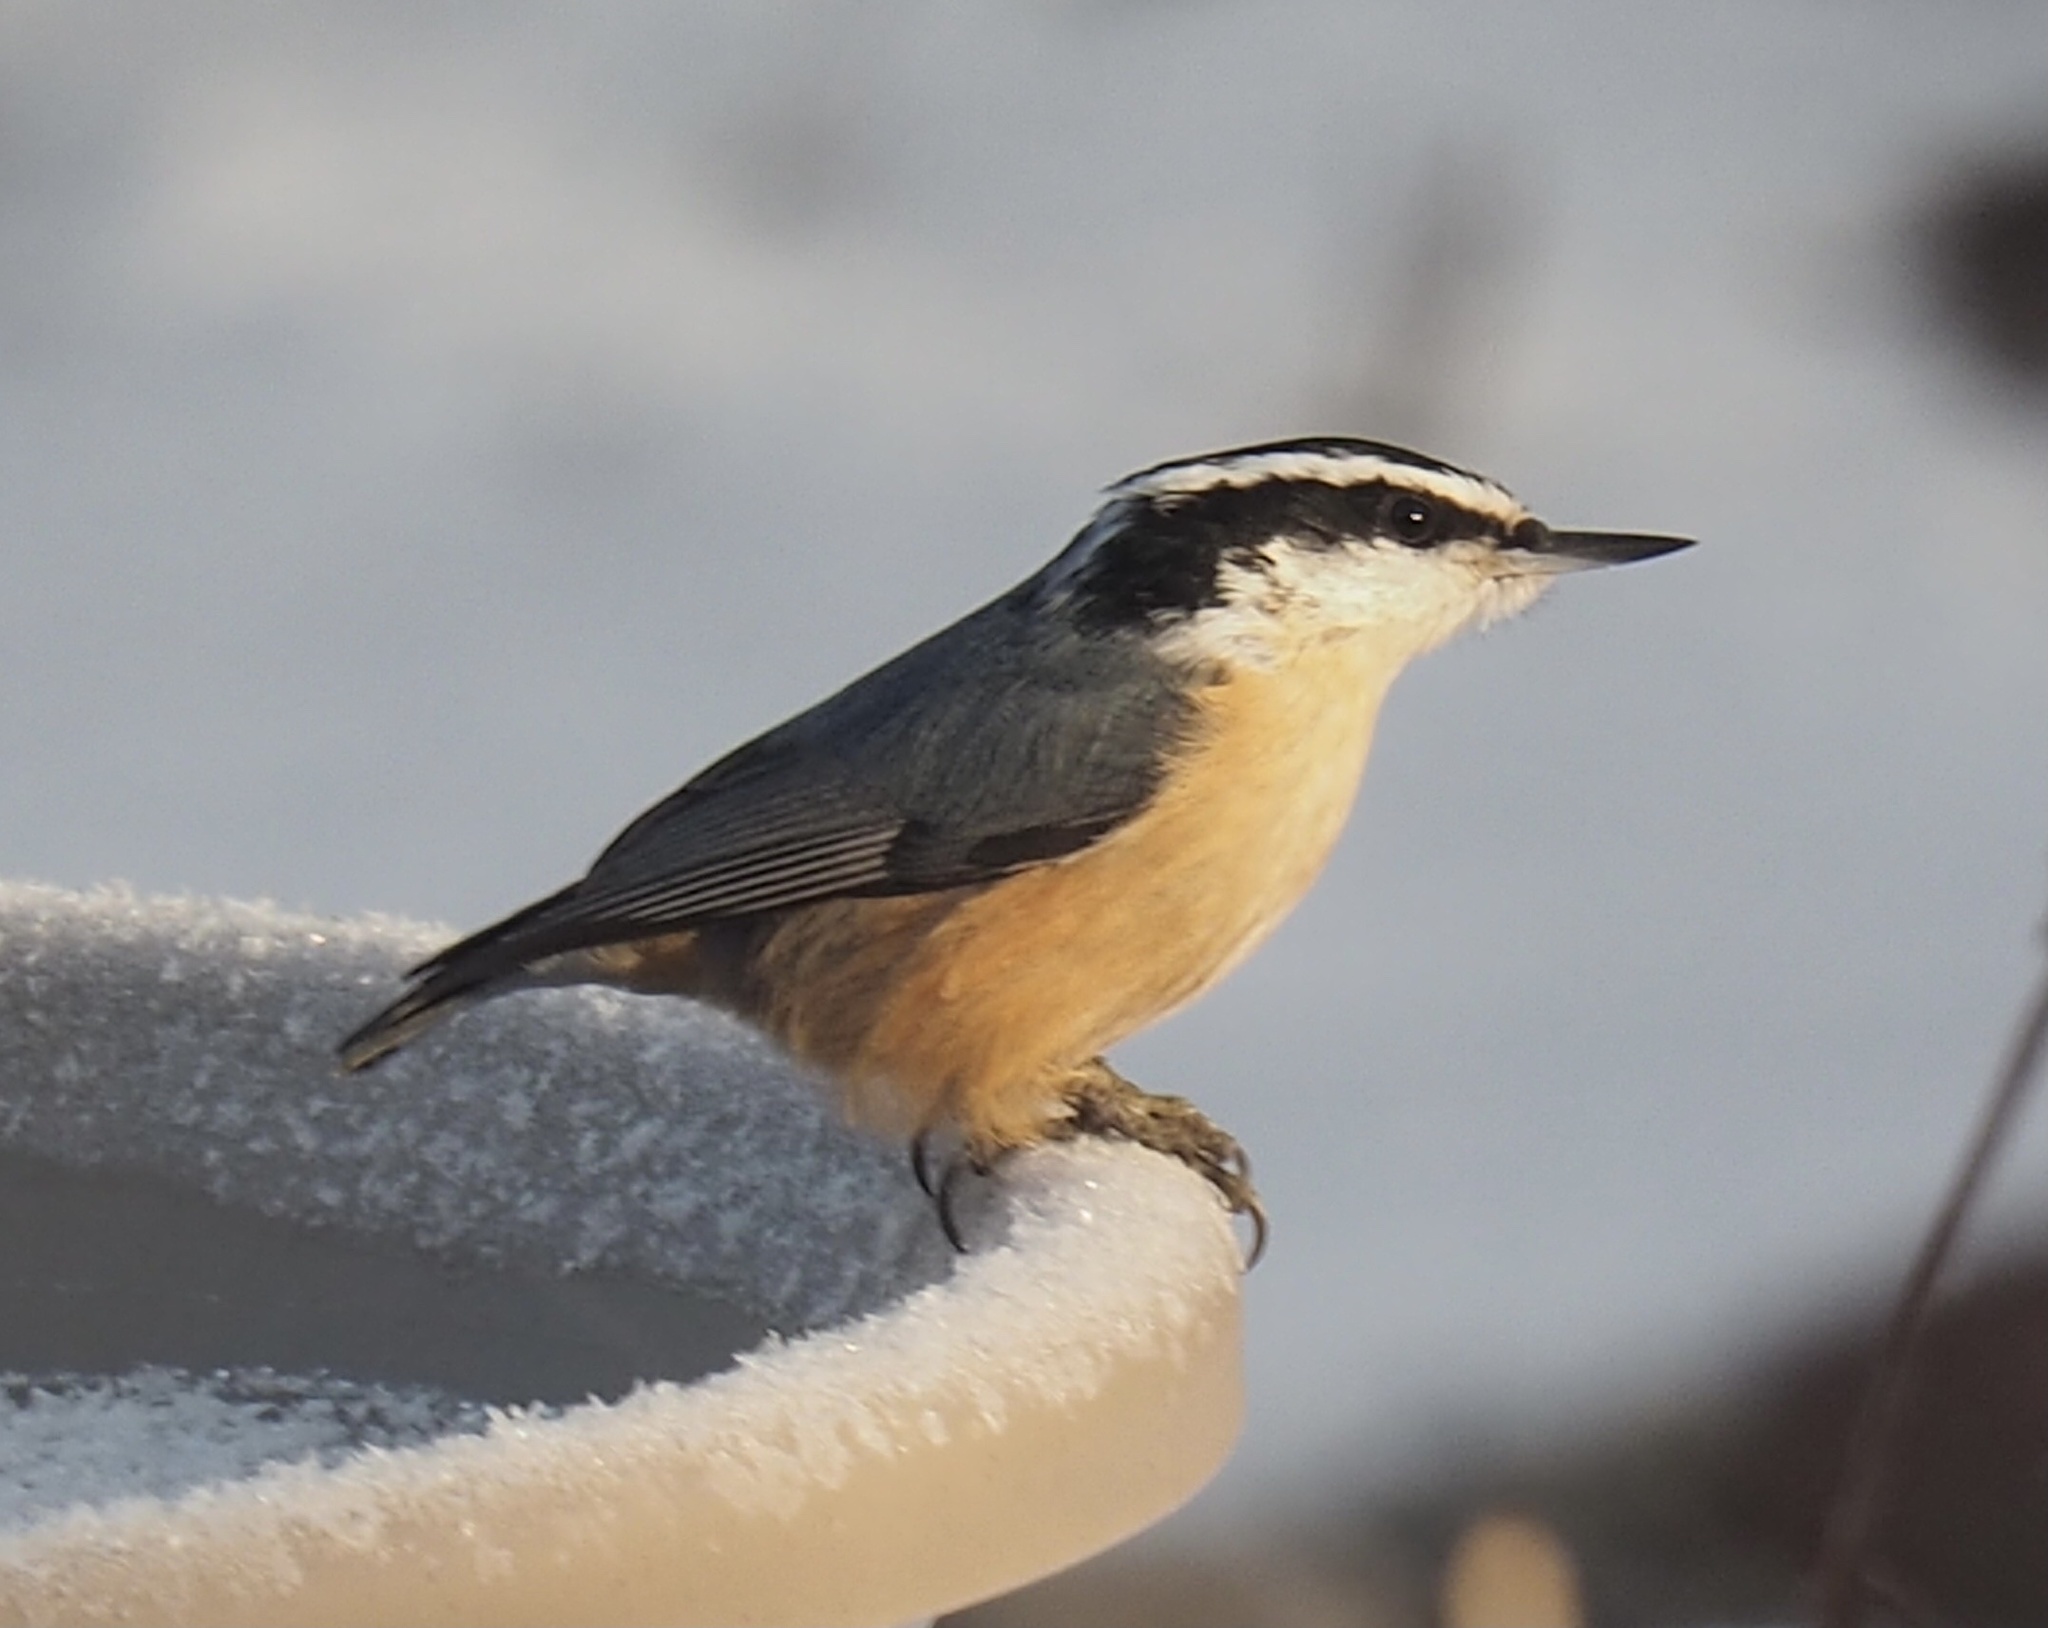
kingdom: Animalia
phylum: Chordata
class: Aves
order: Passeriformes
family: Sittidae
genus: Sitta
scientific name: Sitta canadensis
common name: Red-breasted nuthatch
